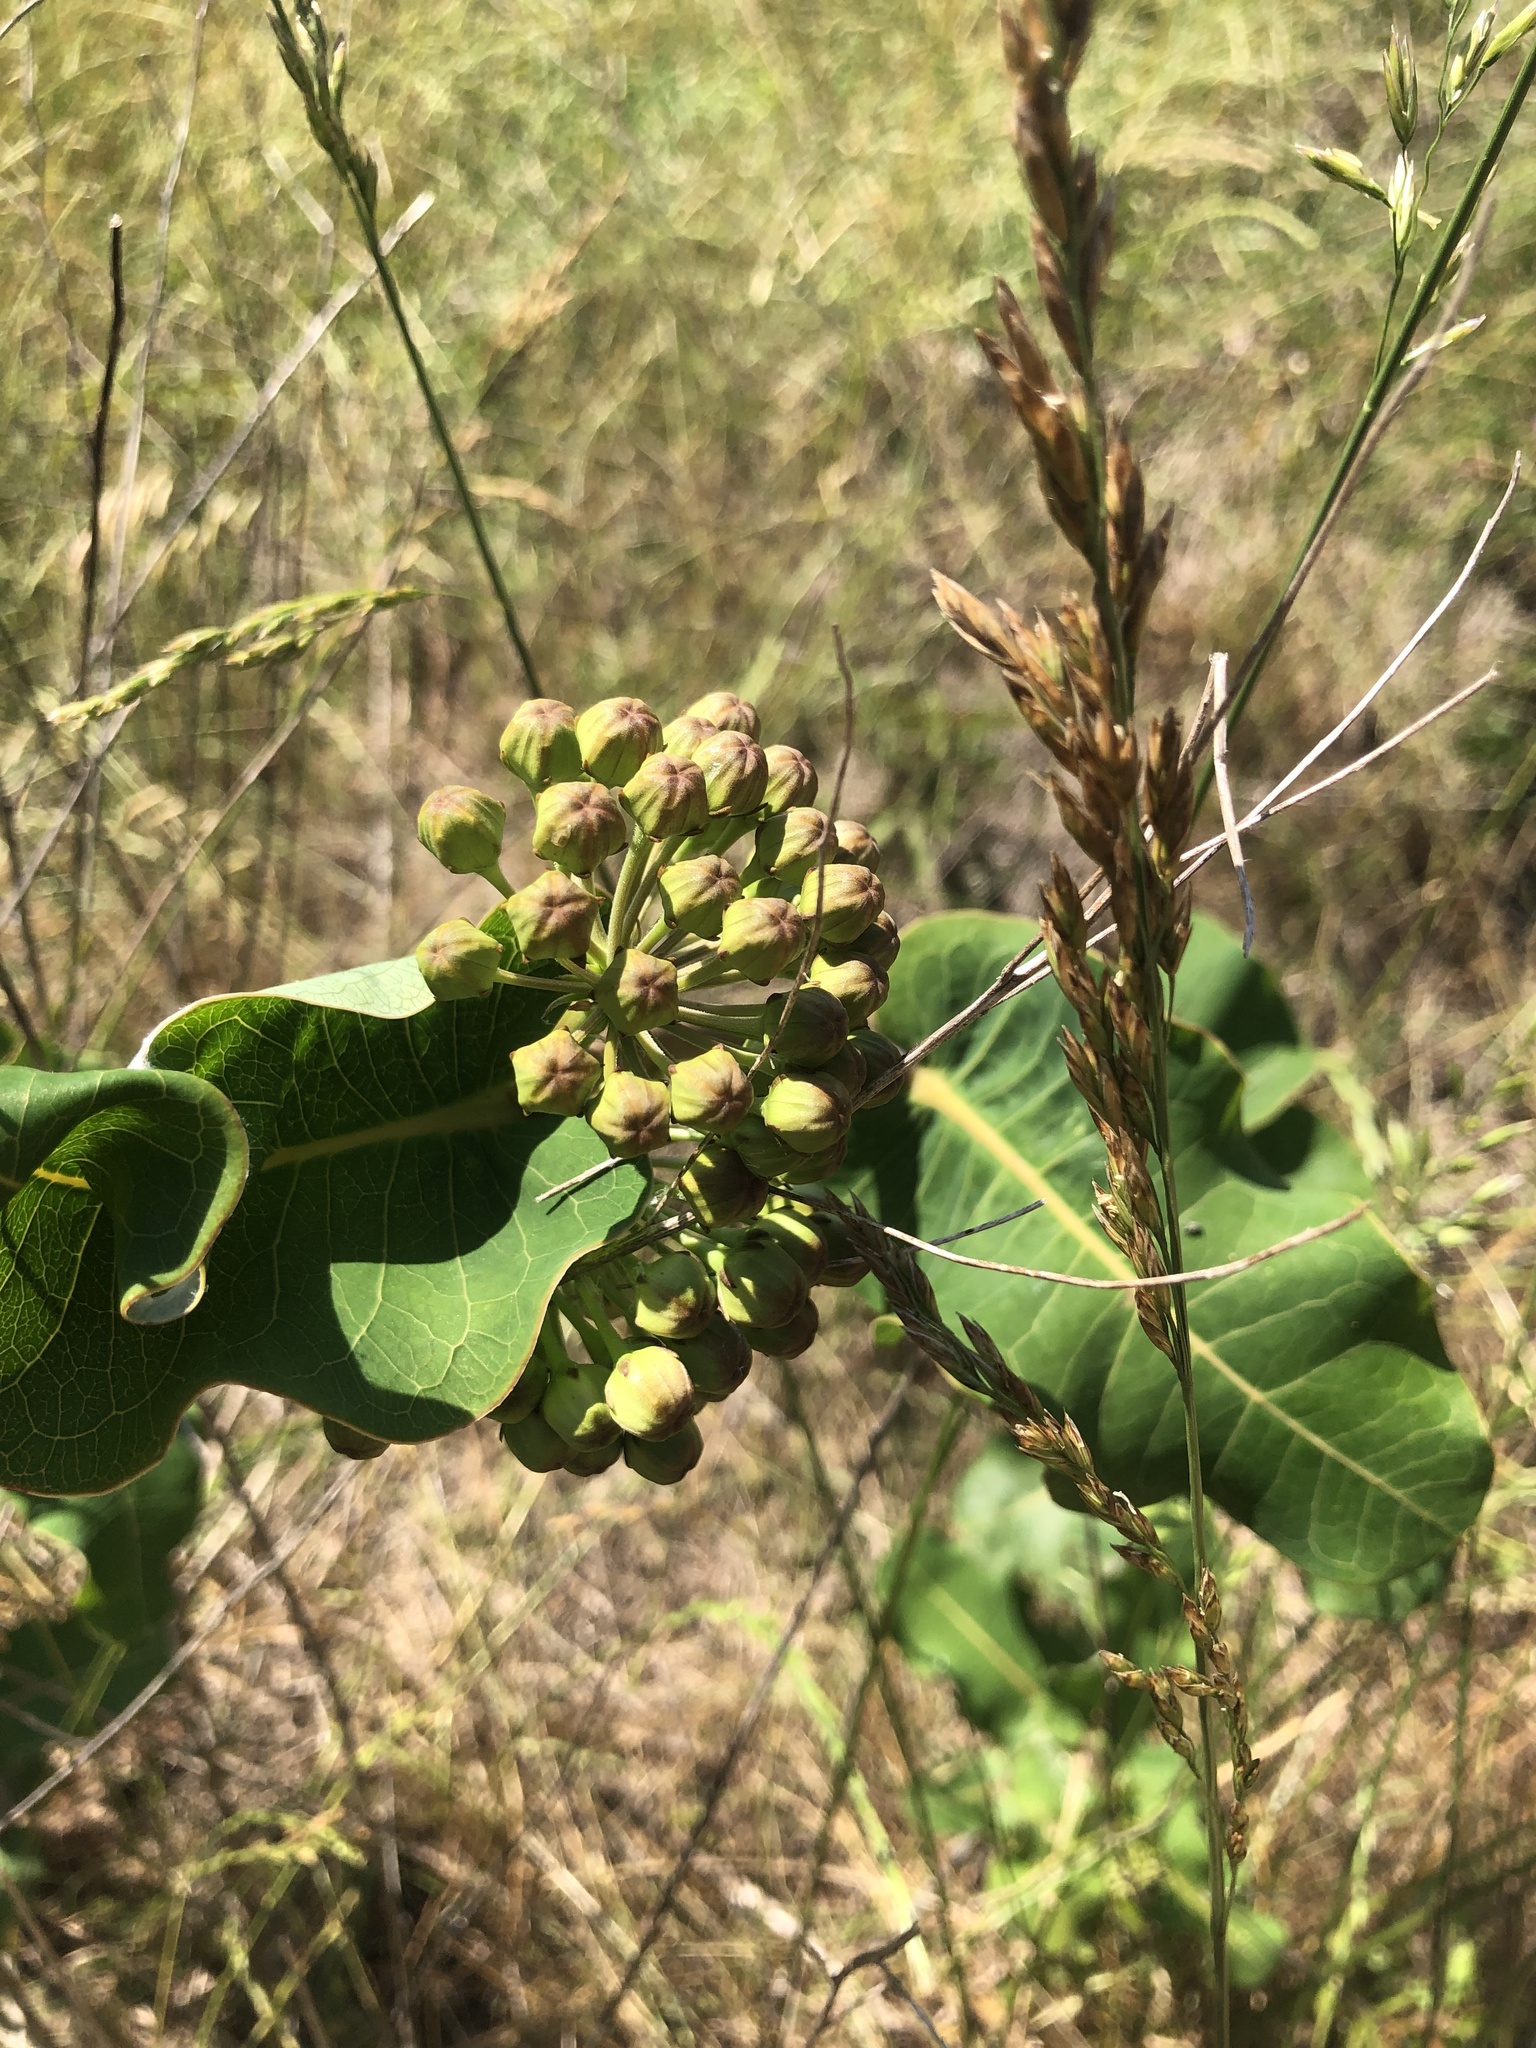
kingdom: Plantae
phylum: Tracheophyta
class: Magnoliopsida
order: Gentianales
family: Apocynaceae
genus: Asclepias
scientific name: Asclepias amplexicaulis
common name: Blunt-leaf milkweed
